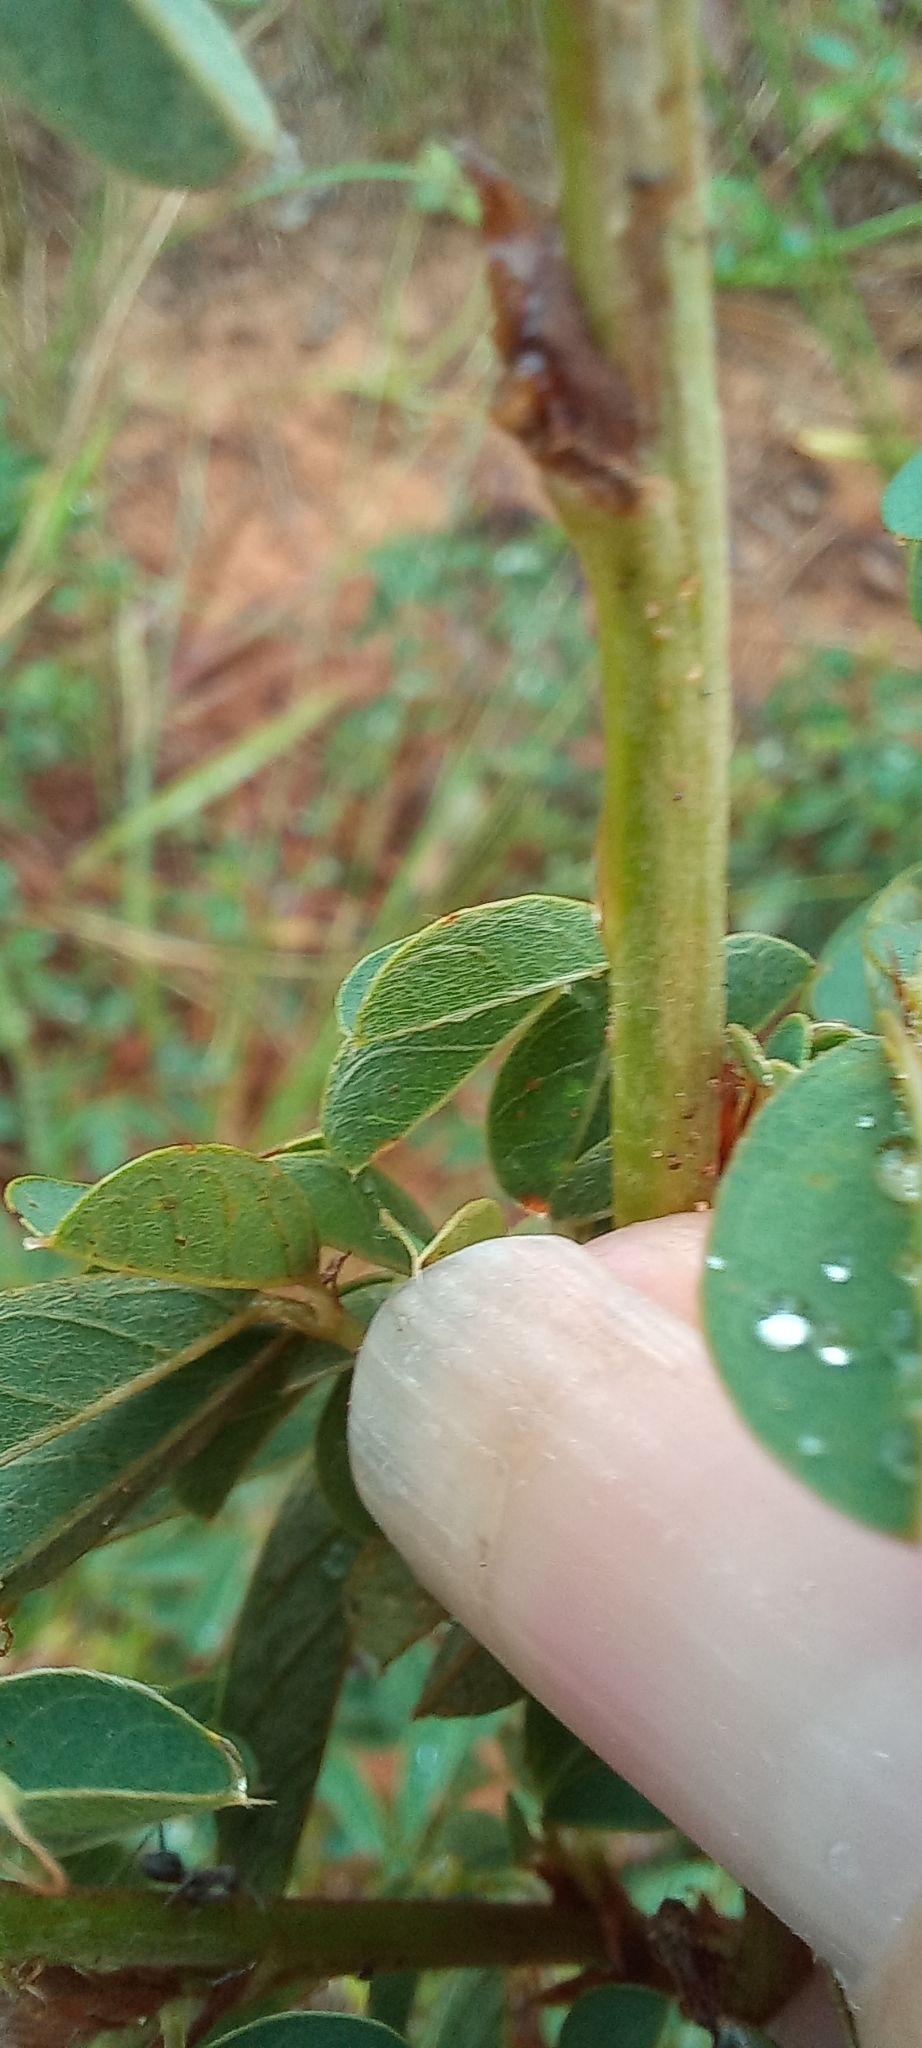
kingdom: Plantae
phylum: Tracheophyta
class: Magnoliopsida
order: Fabales
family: Fabaceae
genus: Grona
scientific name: Grona caffra
